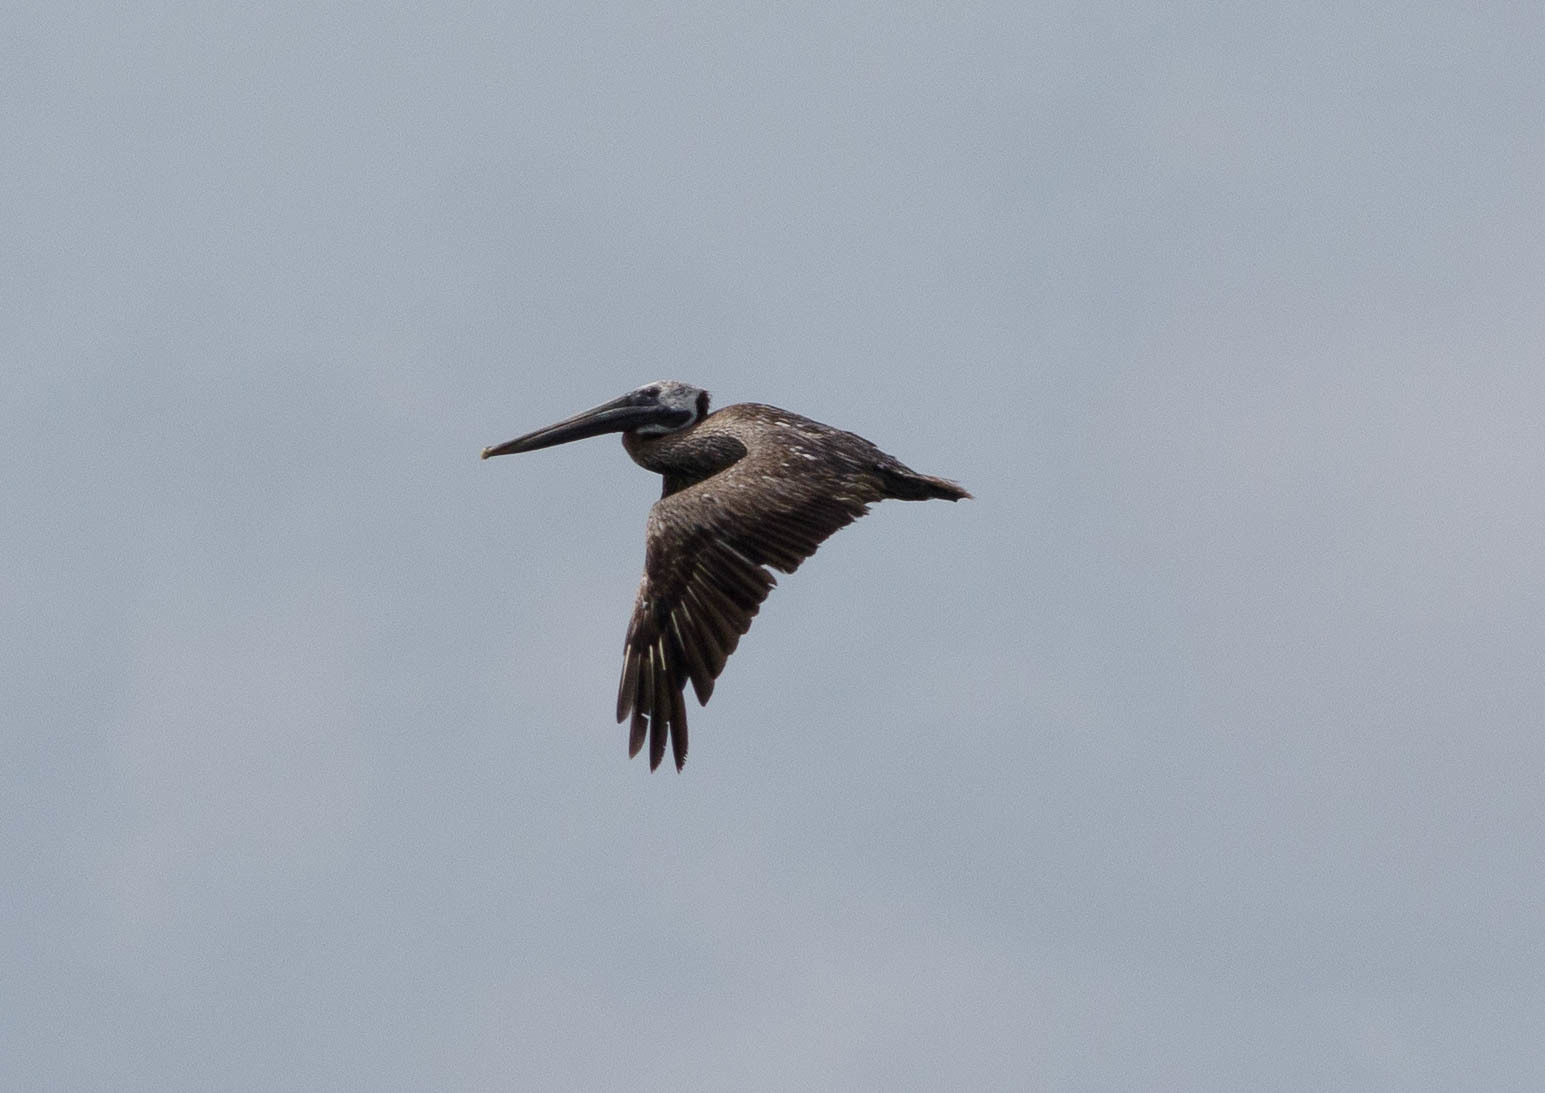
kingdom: Animalia
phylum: Chordata
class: Aves
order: Pelecaniformes
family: Pelecanidae
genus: Pelecanus
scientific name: Pelecanus occidentalis
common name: Brown pelican
